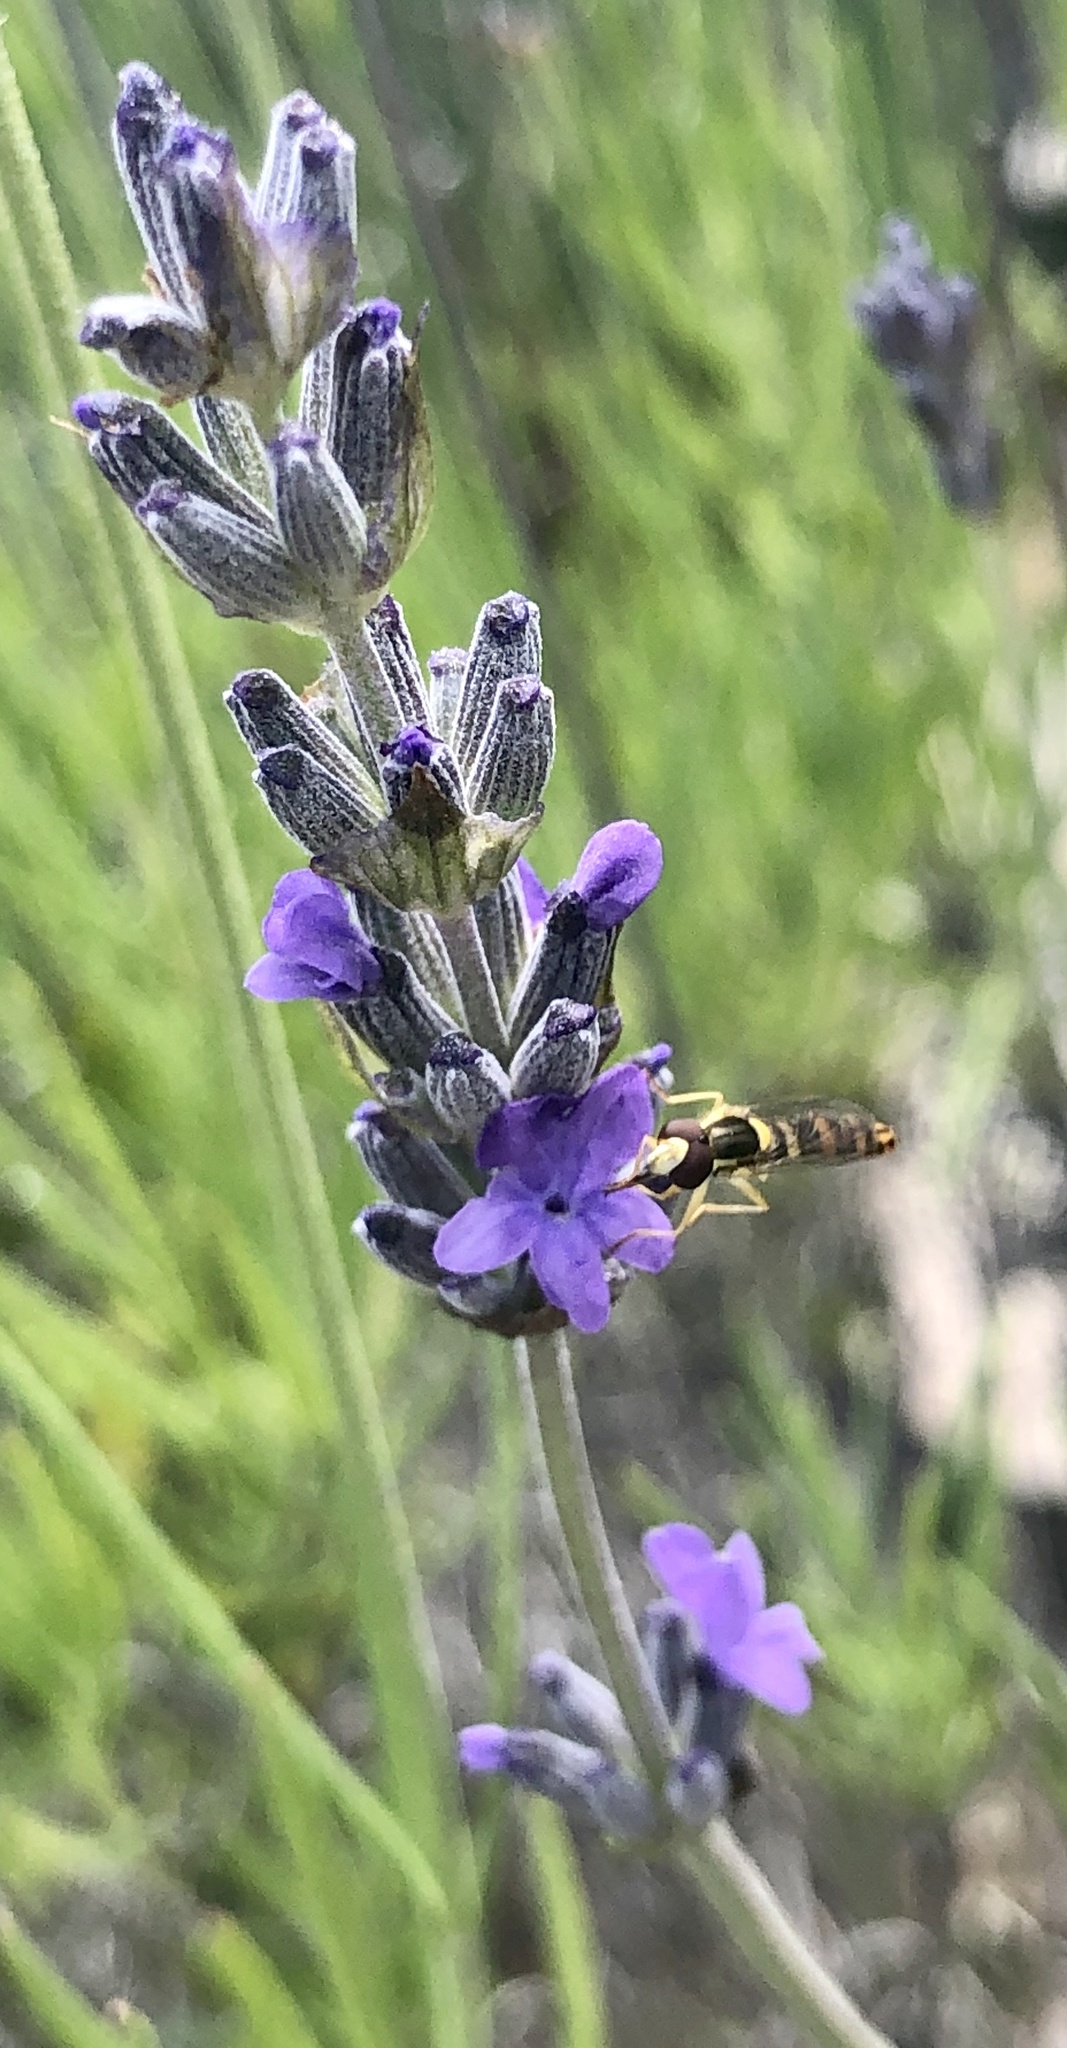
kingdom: Animalia
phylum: Arthropoda
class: Insecta
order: Diptera
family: Syrphidae
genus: Sphaerophoria
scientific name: Sphaerophoria scripta
